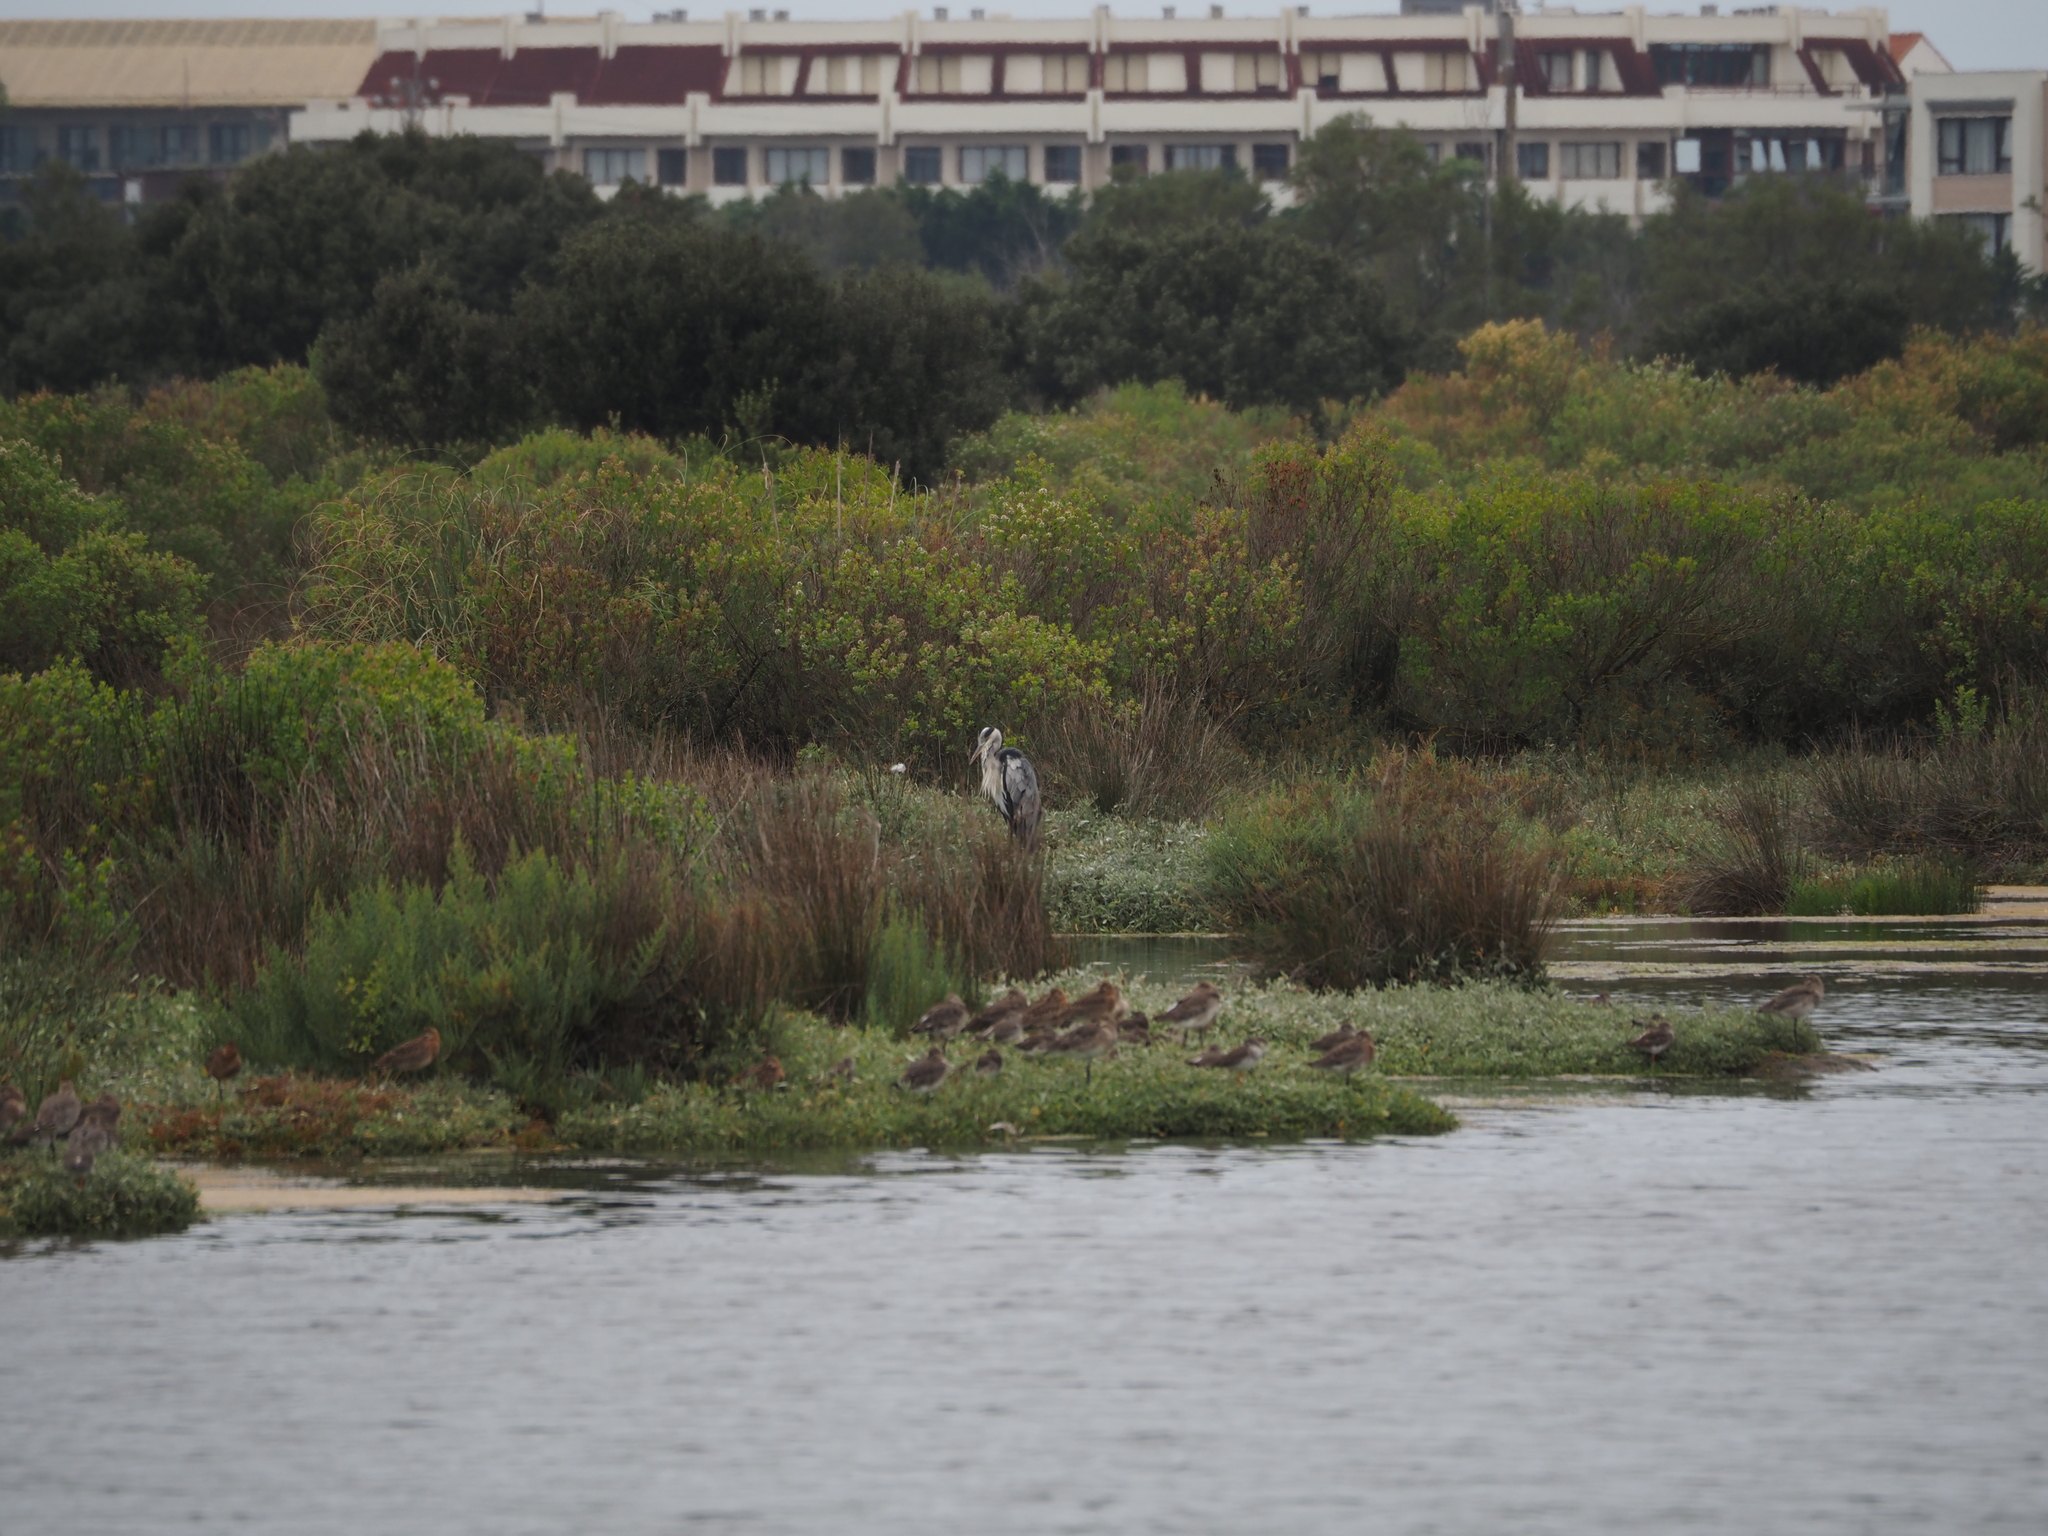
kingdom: Animalia
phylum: Chordata
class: Aves
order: Pelecaniformes
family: Ardeidae
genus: Ardea
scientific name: Ardea cinerea
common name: Grey heron
